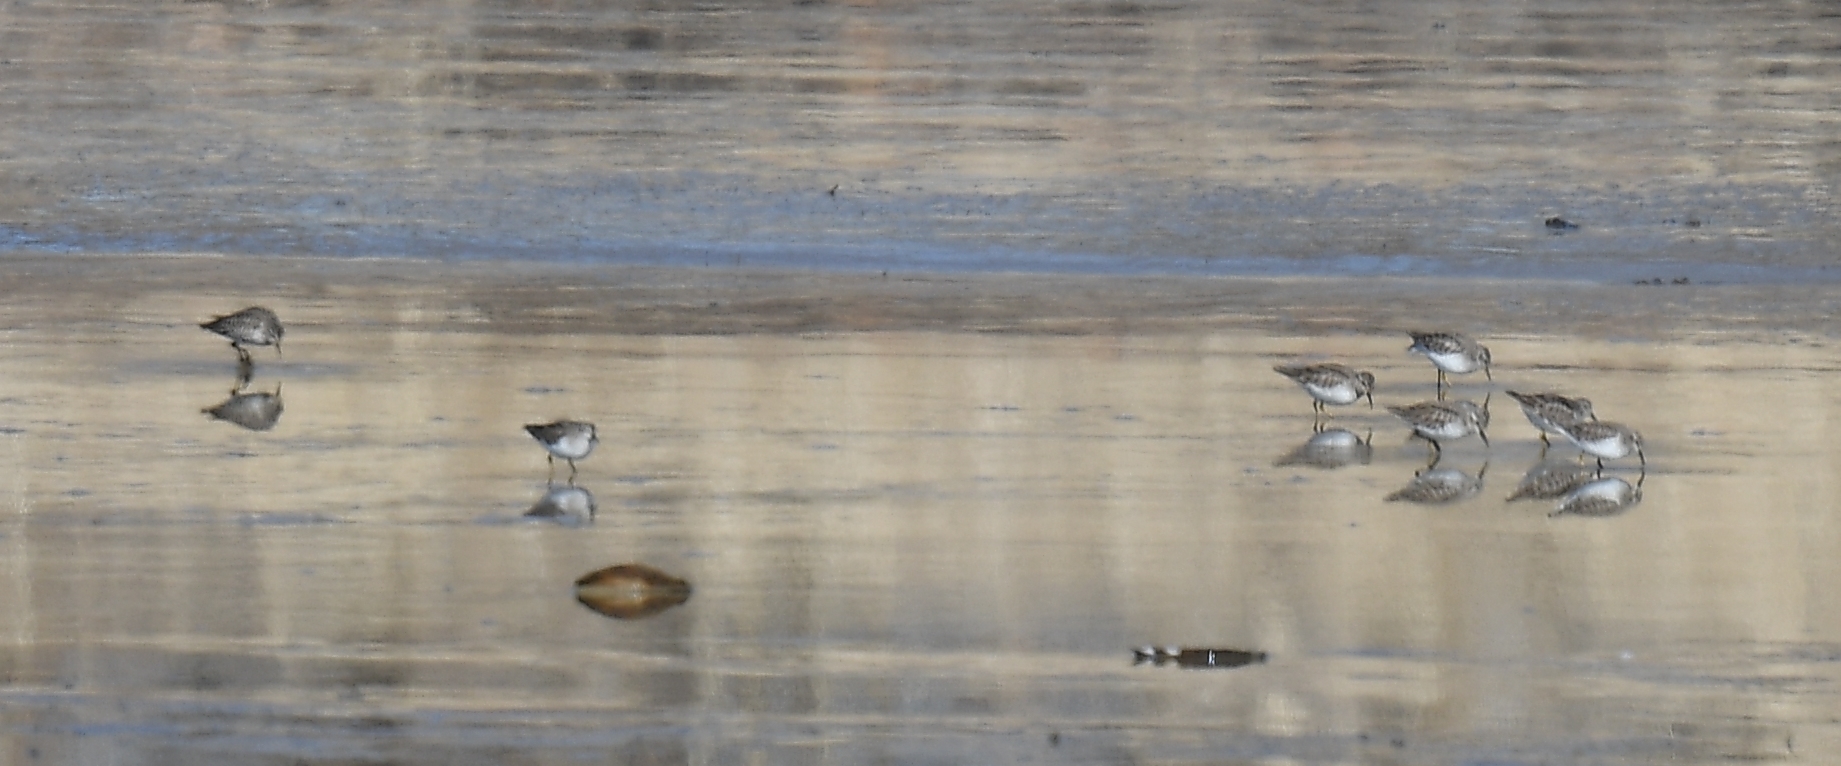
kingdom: Animalia
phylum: Chordata
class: Aves
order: Charadriiformes
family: Scolopacidae
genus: Calidris
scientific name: Calidris minutilla
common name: Least sandpiper
